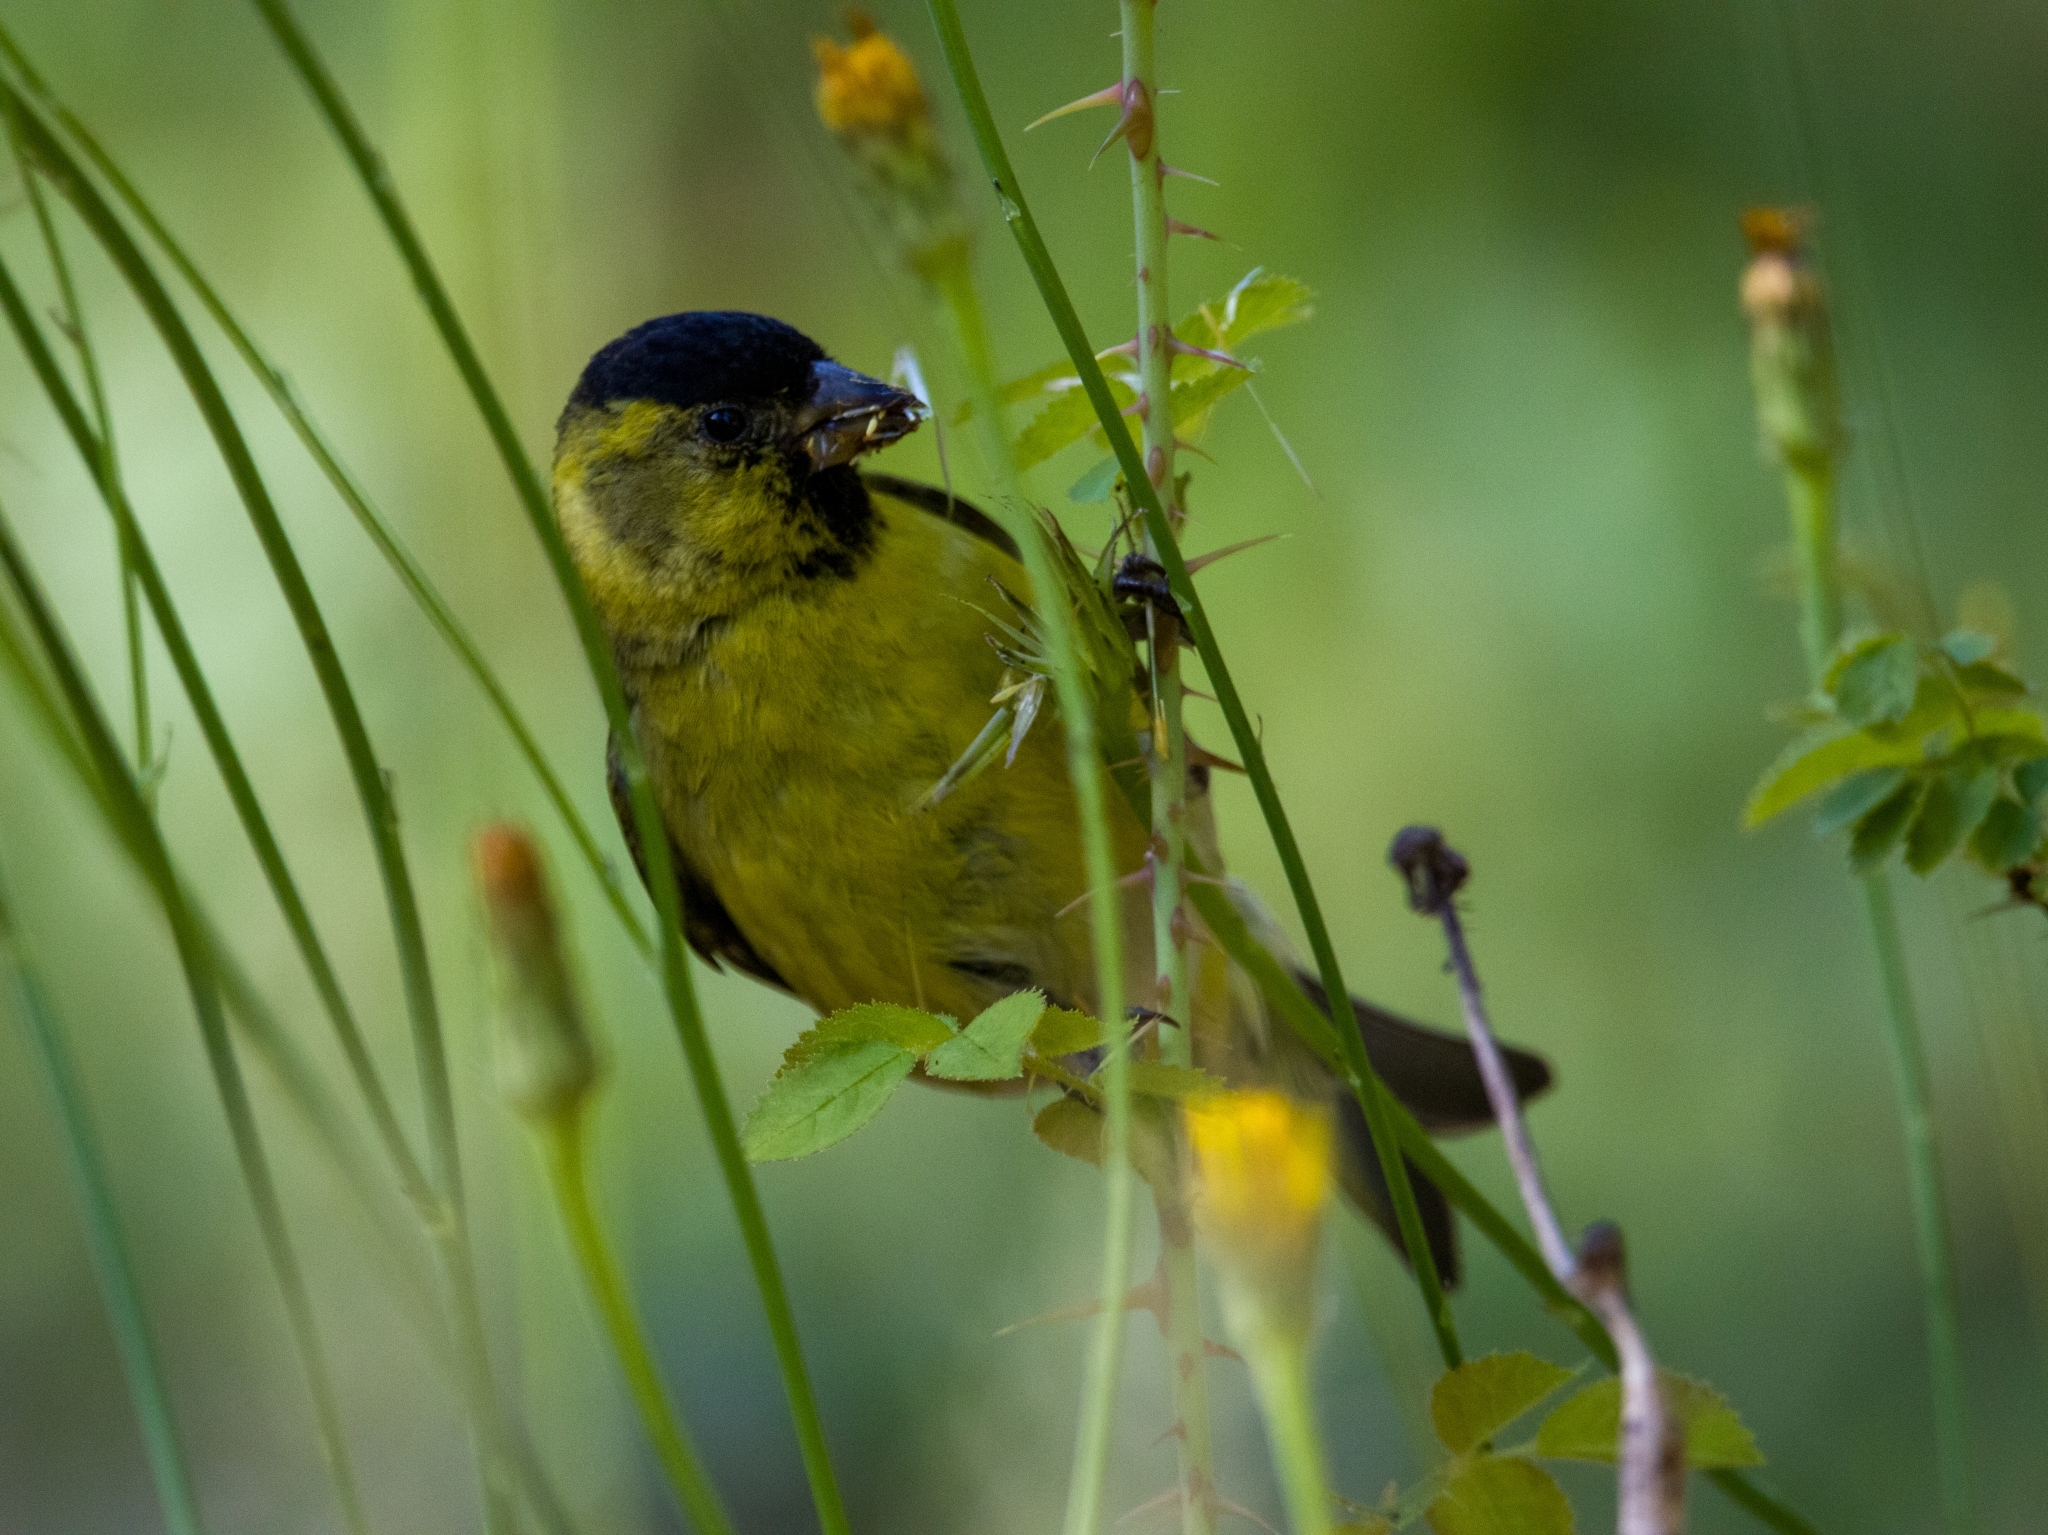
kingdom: Animalia
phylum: Chordata
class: Aves
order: Passeriformes
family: Fringillidae
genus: Spinus
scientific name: Spinus barbatus
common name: Black-chinned siskin
